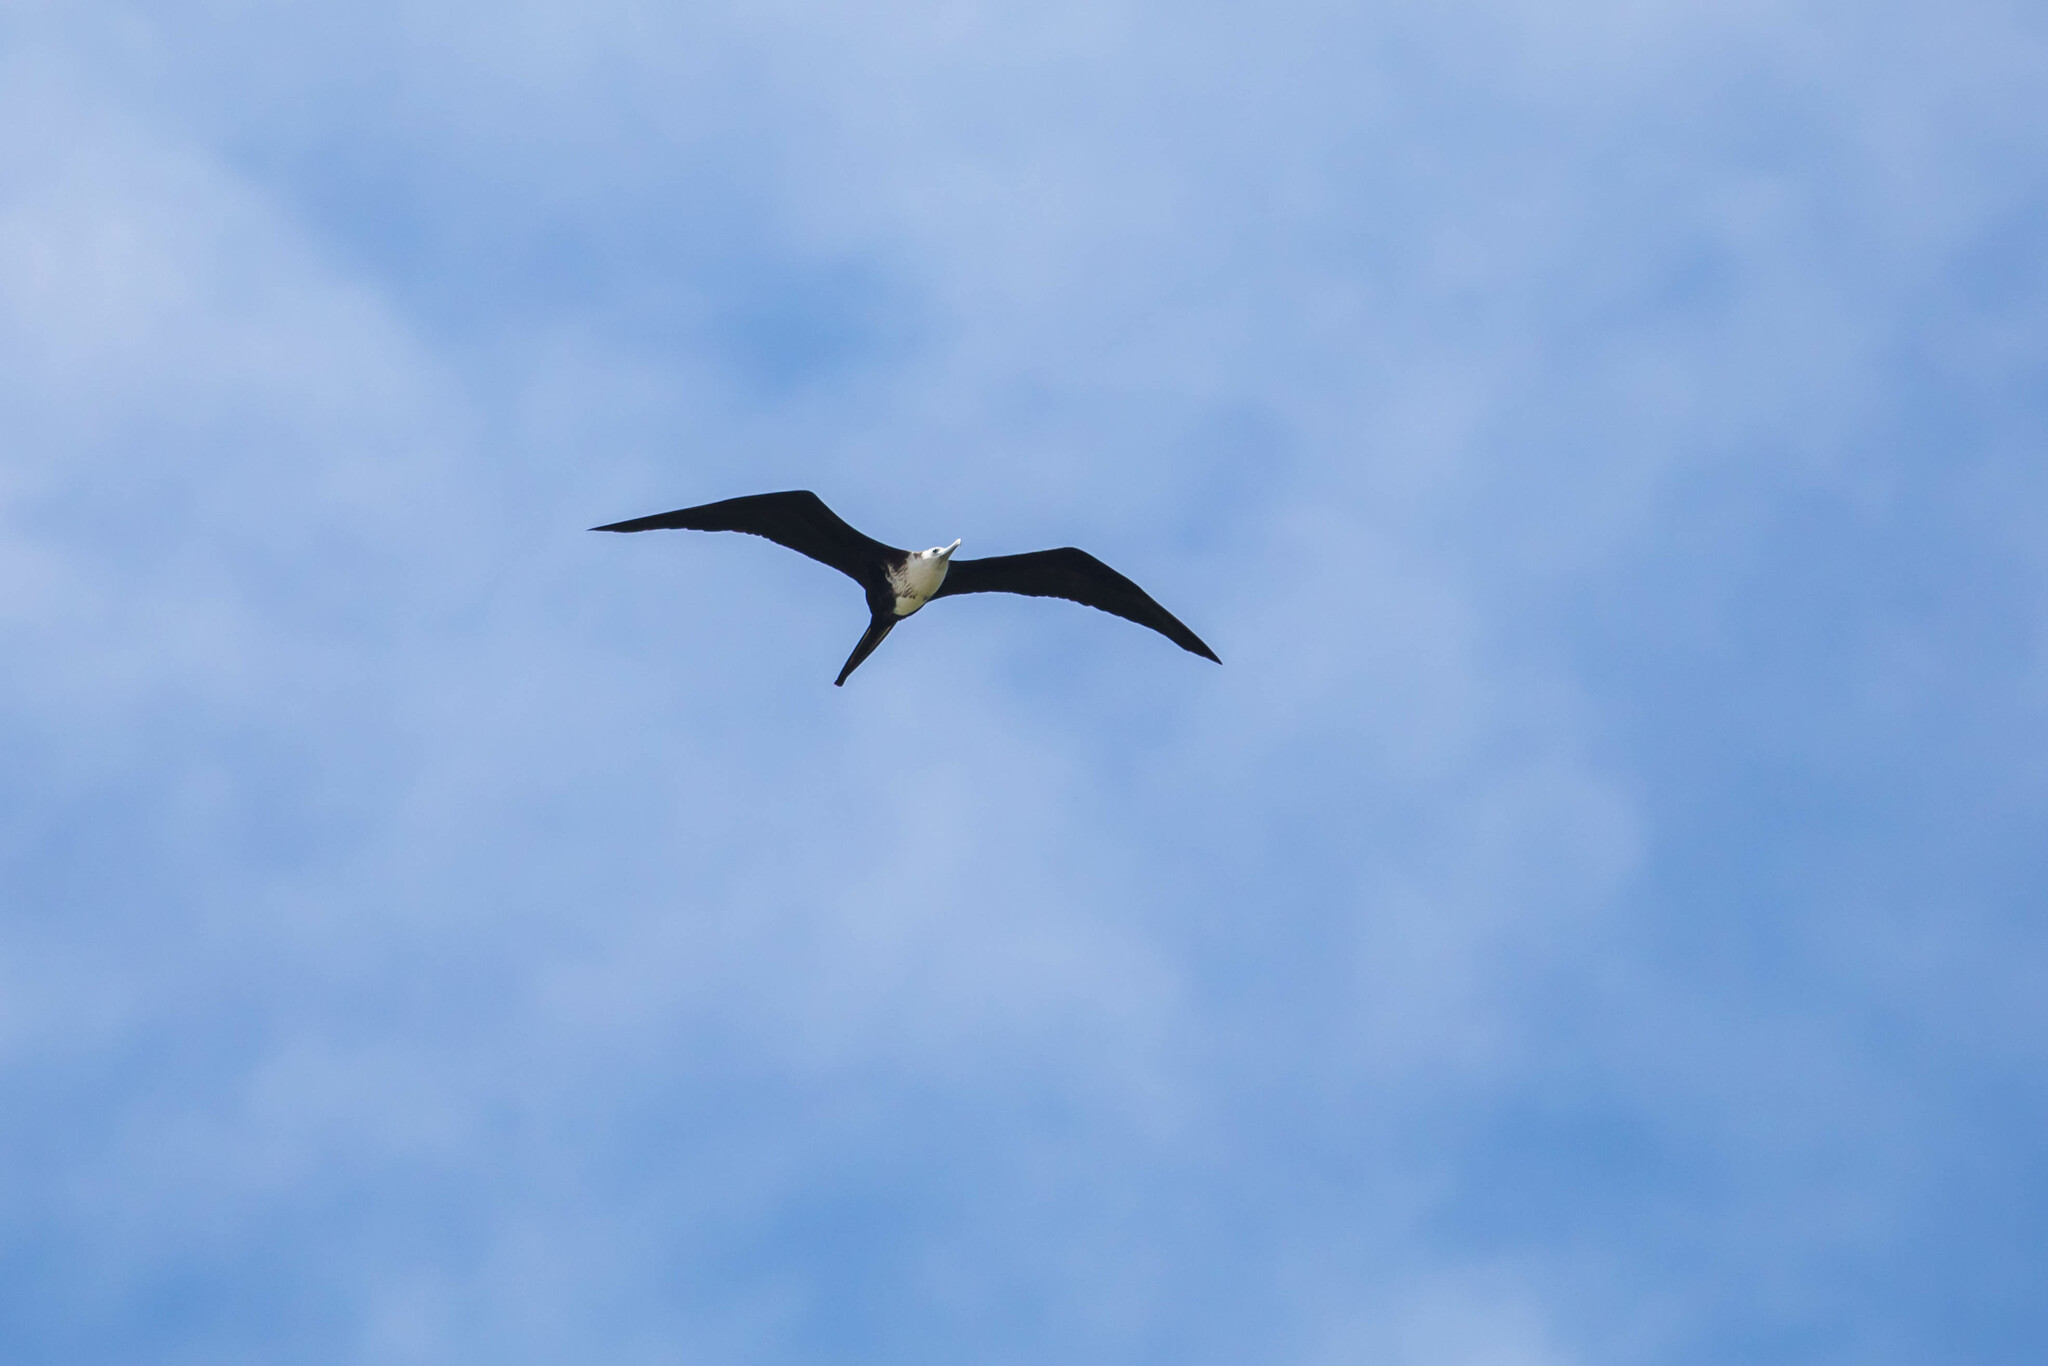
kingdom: Animalia
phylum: Chordata
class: Aves
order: Suliformes
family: Fregatidae
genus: Fregata
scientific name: Fregata magnificens
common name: Magnificent frigatebird
